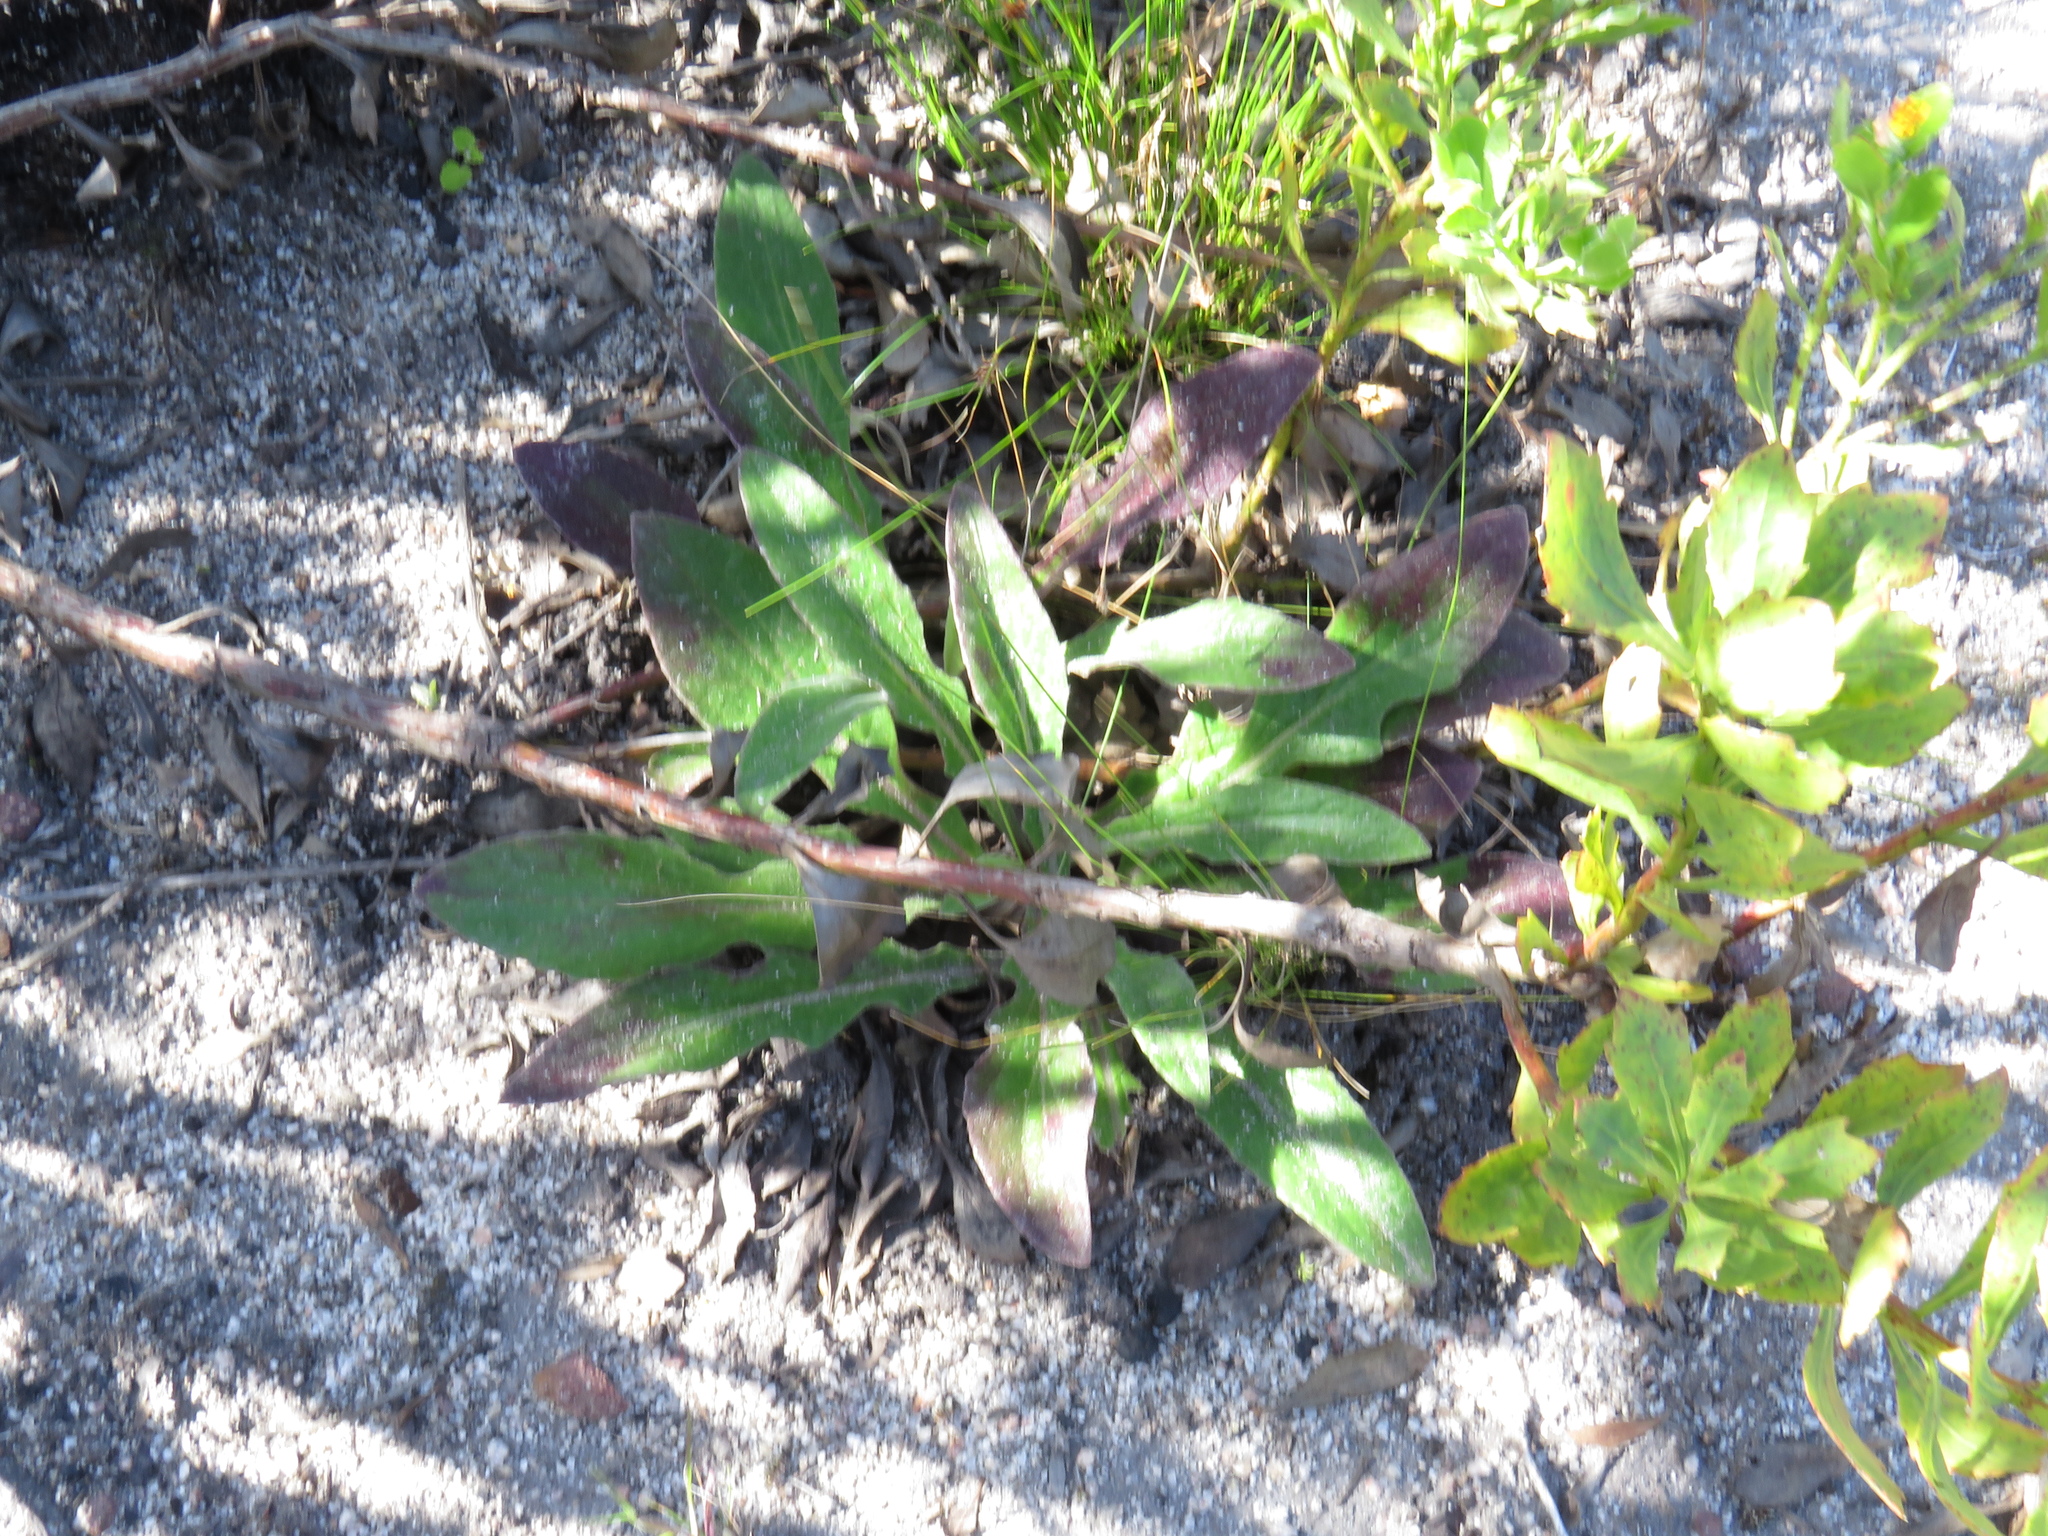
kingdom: Plantae
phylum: Tracheophyta
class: Magnoliopsida
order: Asterales
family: Asteraceae
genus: Haplocarpha
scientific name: Haplocarpha lanata
